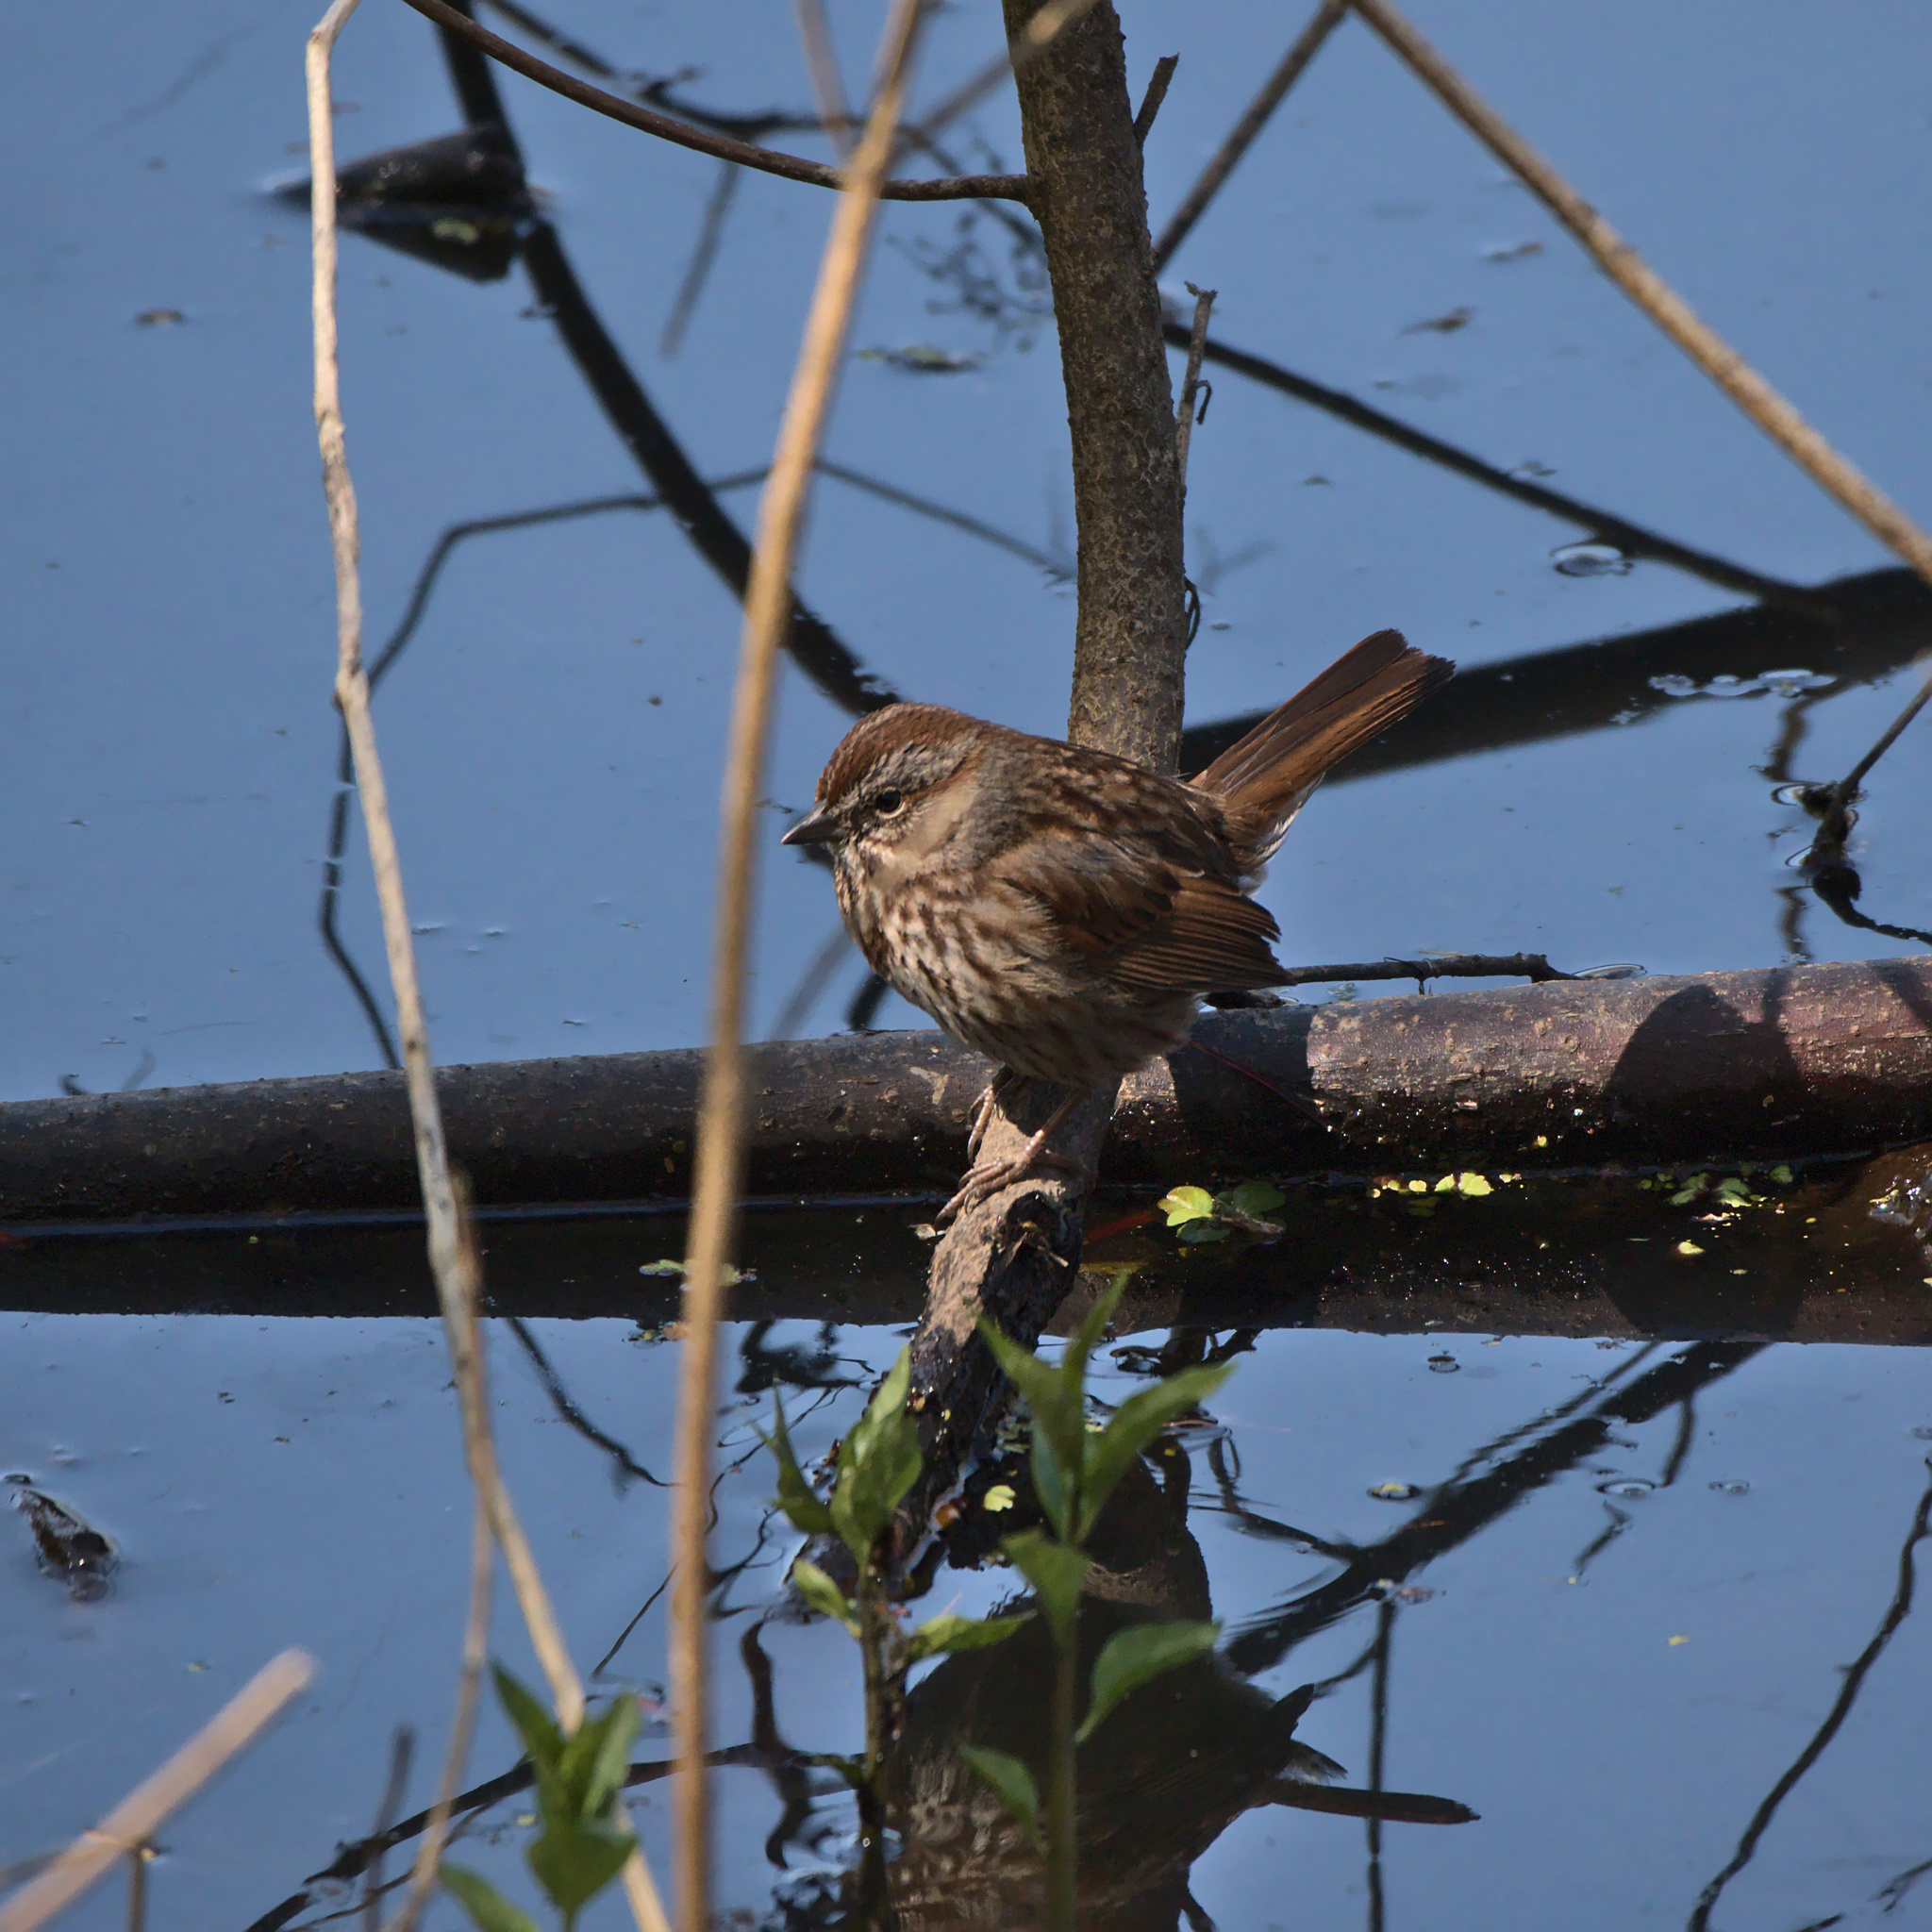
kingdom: Animalia
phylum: Chordata
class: Aves
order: Passeriformes
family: Passerellidae
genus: Melospiza
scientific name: Melospiza melodia
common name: Song sparrow
